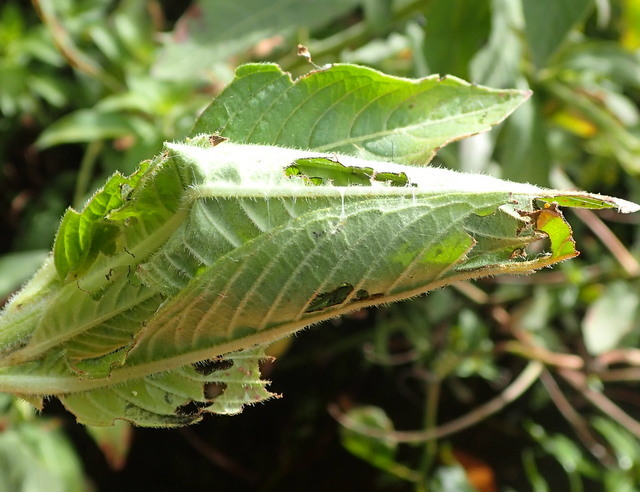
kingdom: Animalia
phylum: Arthropoda
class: Arachnida
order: Araneae
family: Araneidae
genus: Metazygia
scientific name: Metazygia zilloides
